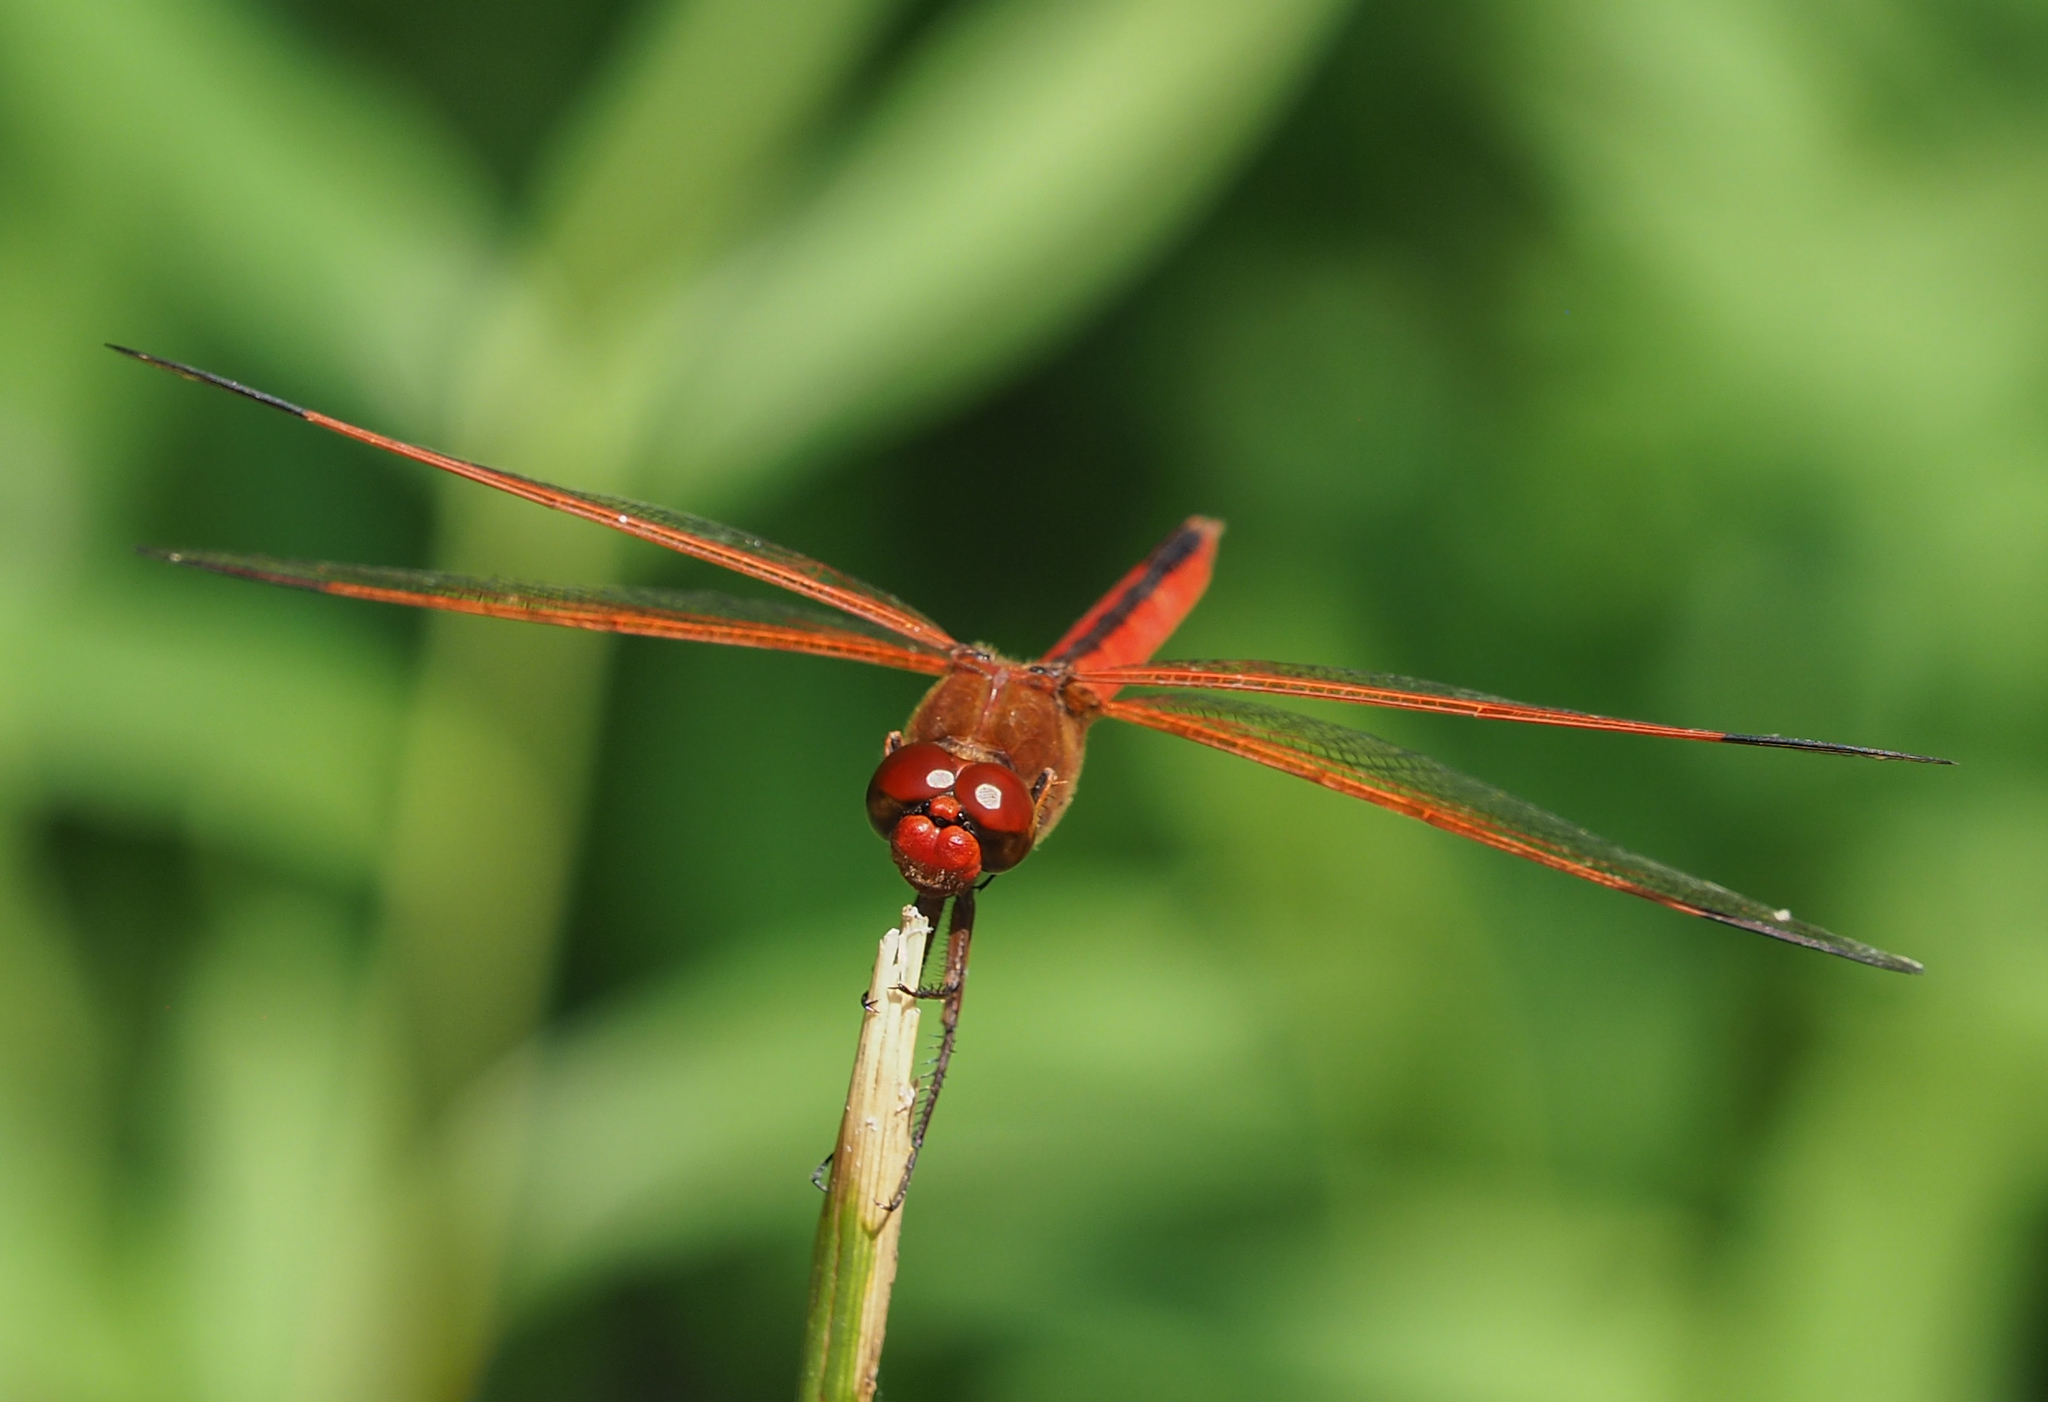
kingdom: Animalia
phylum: Arthropoda
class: Insecta
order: Odonata
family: Libellulidae
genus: Libellula
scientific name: Libellula needhami
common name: Needham's skimmer
